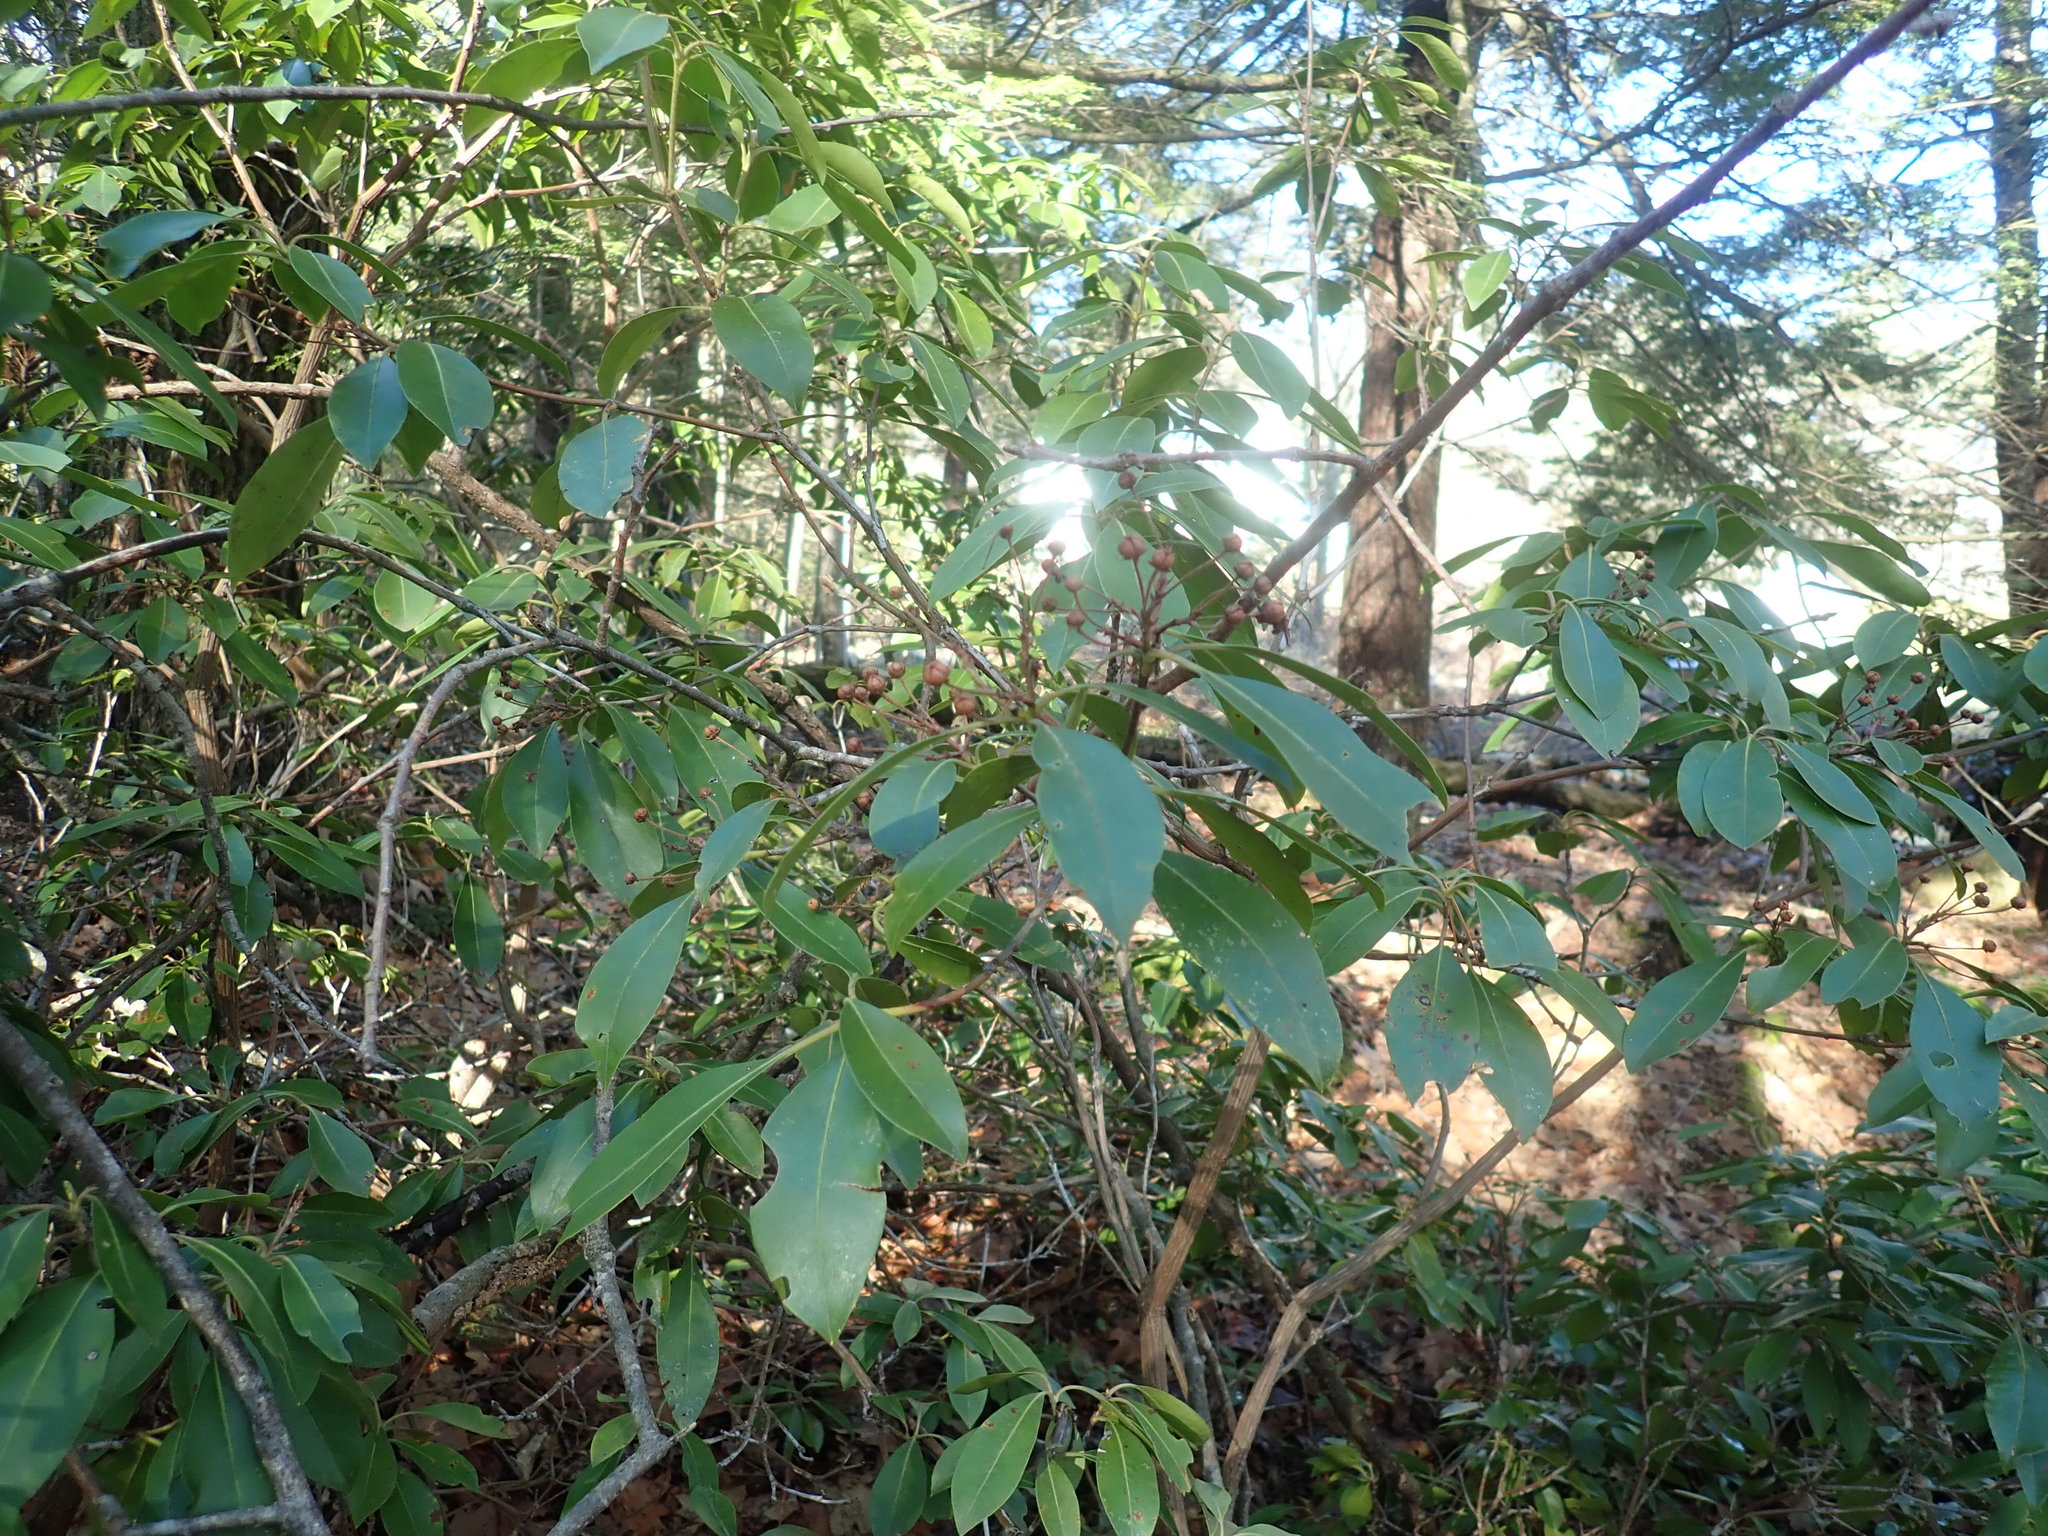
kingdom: Plantae
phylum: Tracheophyta
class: Magnoliopsida
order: Ericales
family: Ericaceae
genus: Kalmia
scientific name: Kalmia latifolia
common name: Mountain-laurel
